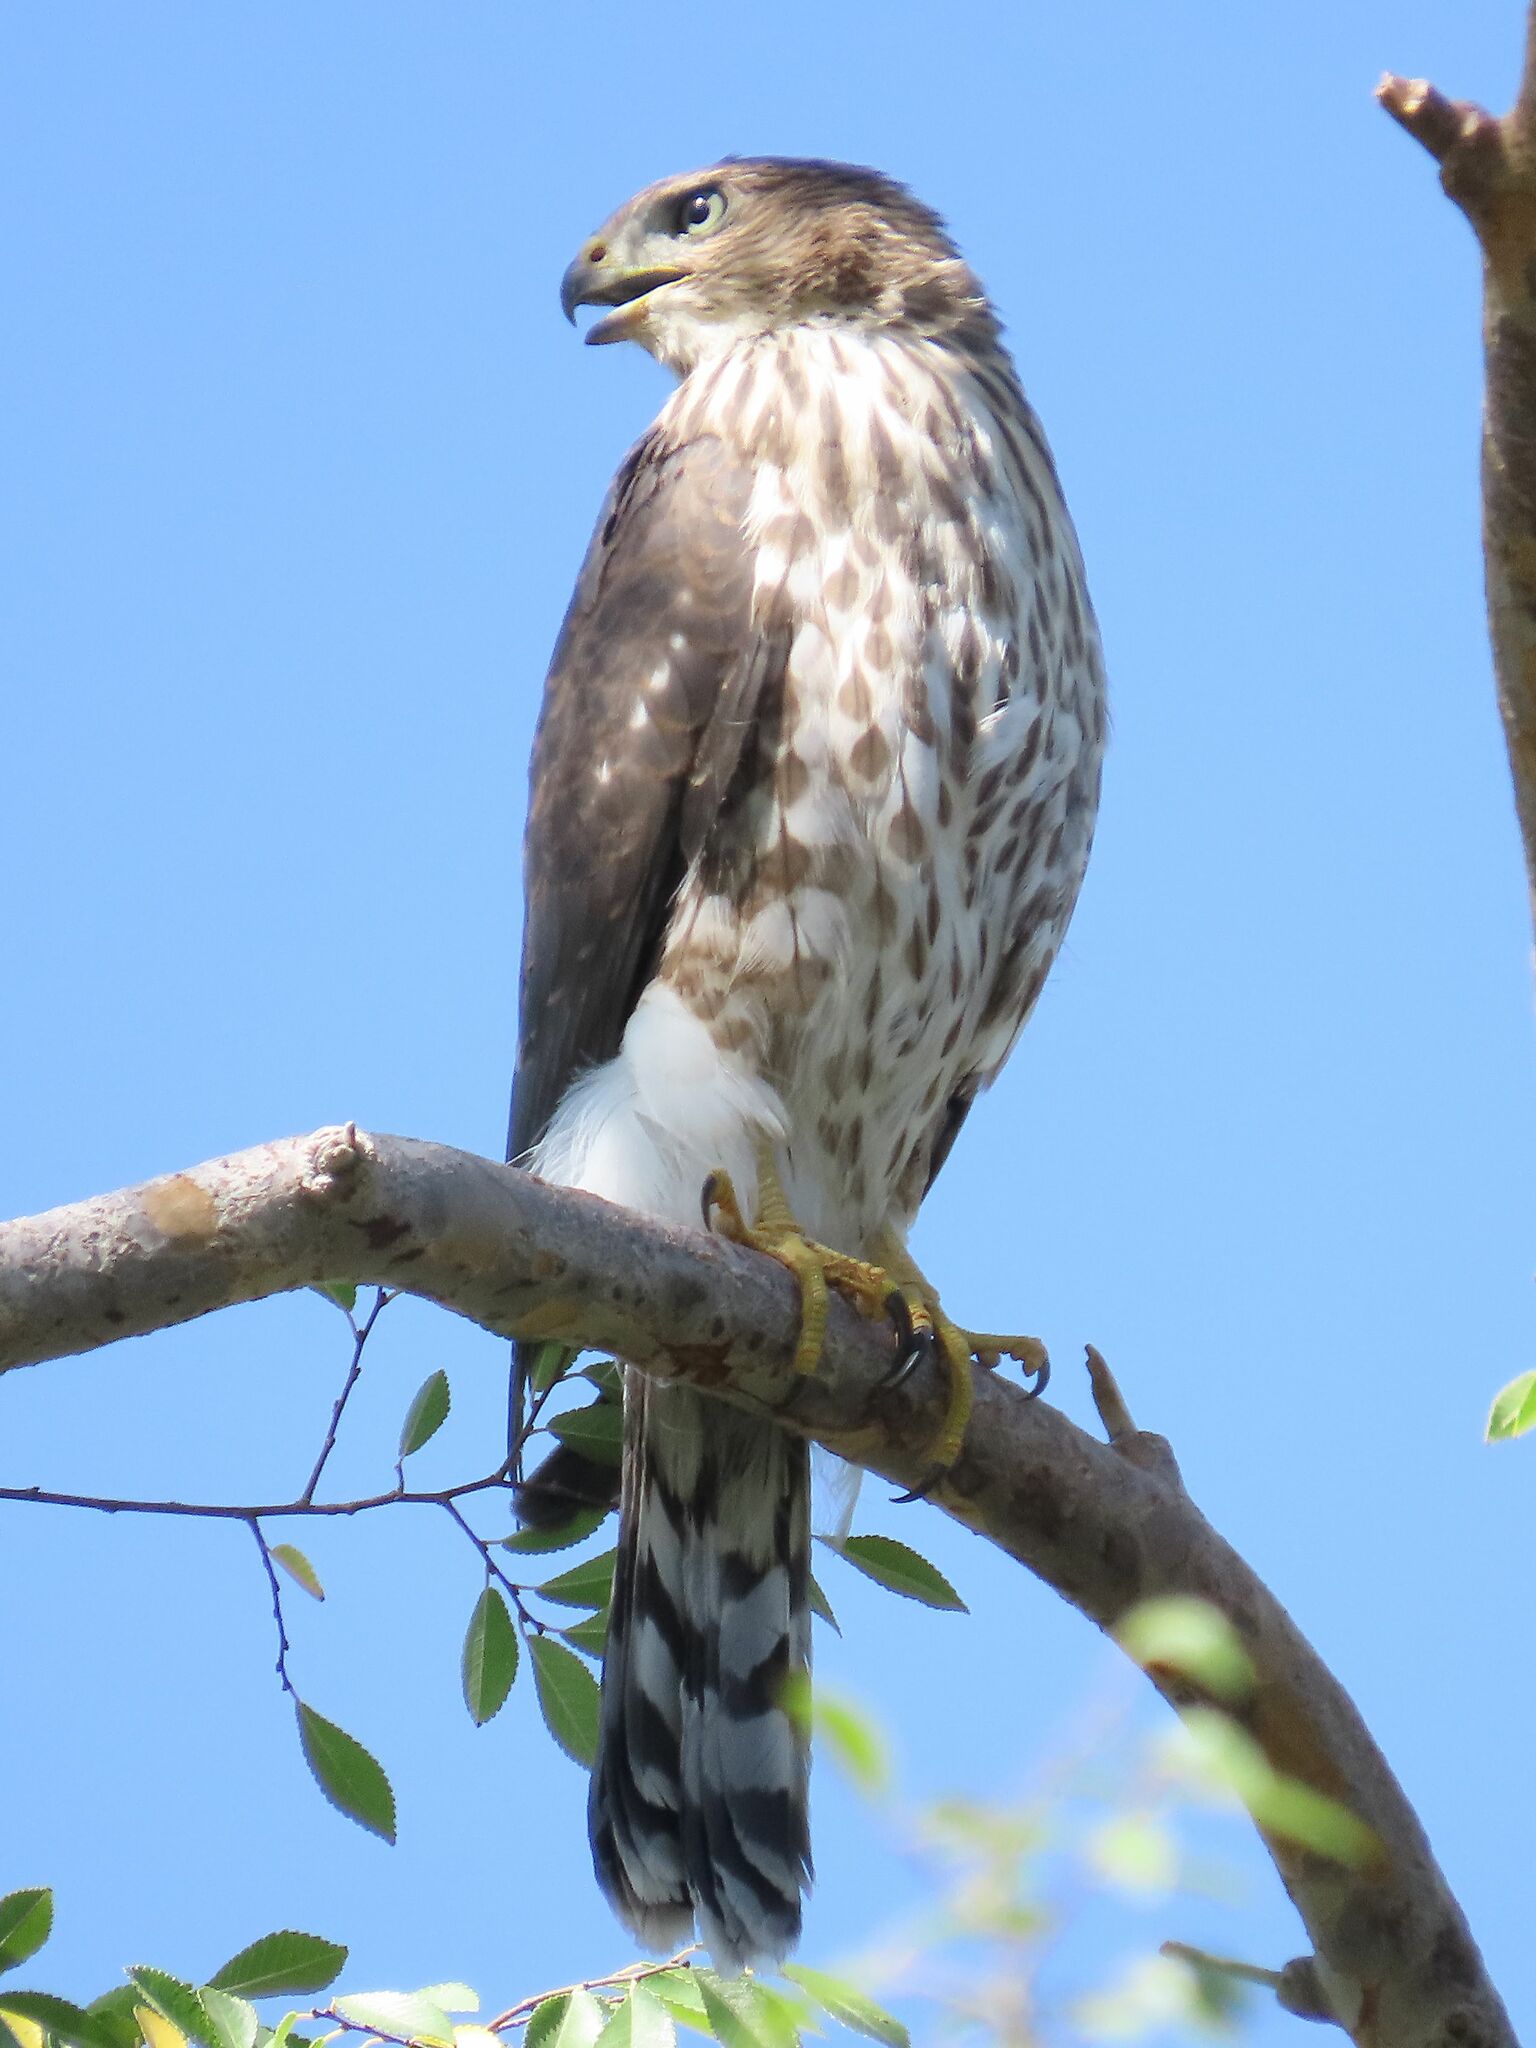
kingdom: Animalia
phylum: Chordata
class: Aves
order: Accipitriformes
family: Accipitridae
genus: Accipiter
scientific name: Accipiter cooperii
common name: Cooper's hawk
